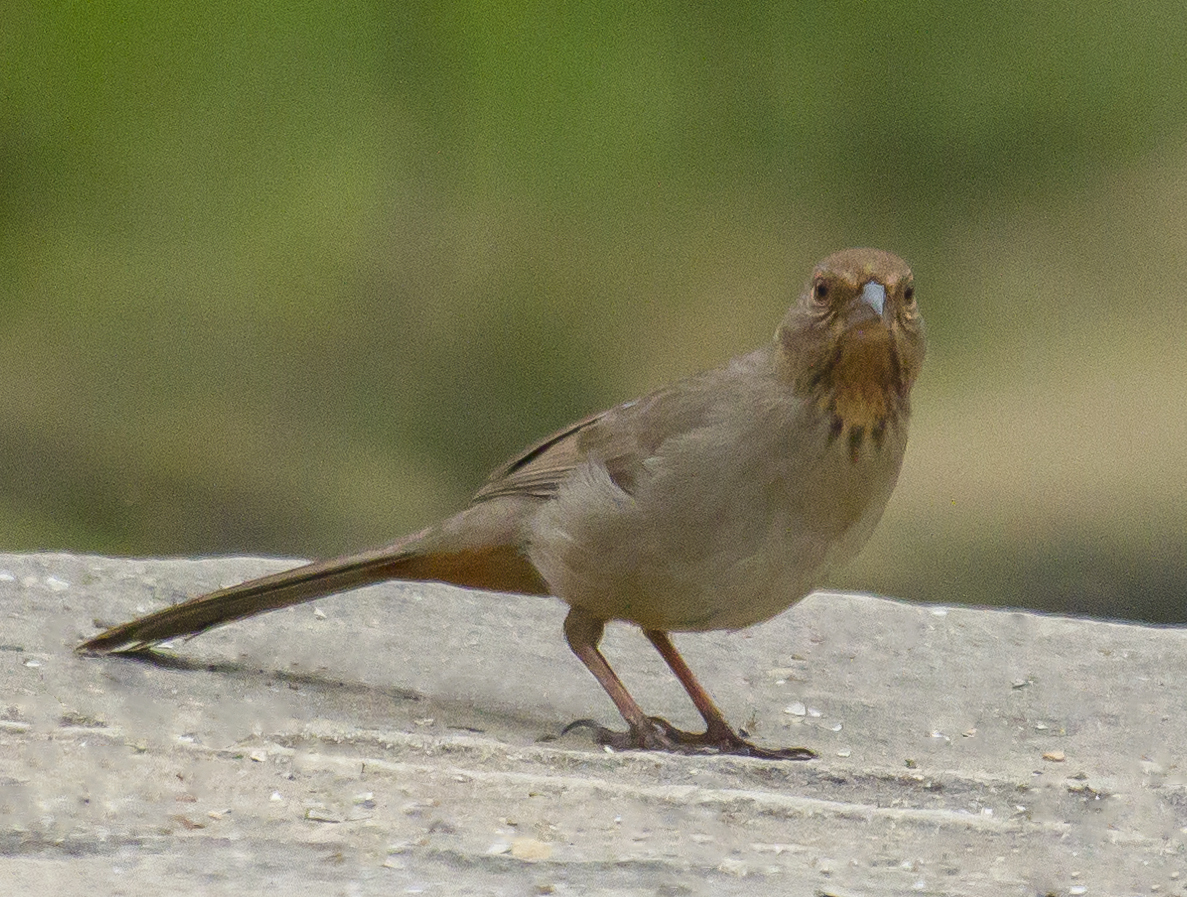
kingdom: Animalia
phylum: Chordata
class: Aves
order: Passeriformes
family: Passerellidae
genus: Melozone
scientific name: Melozone crissalis
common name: California towhee
